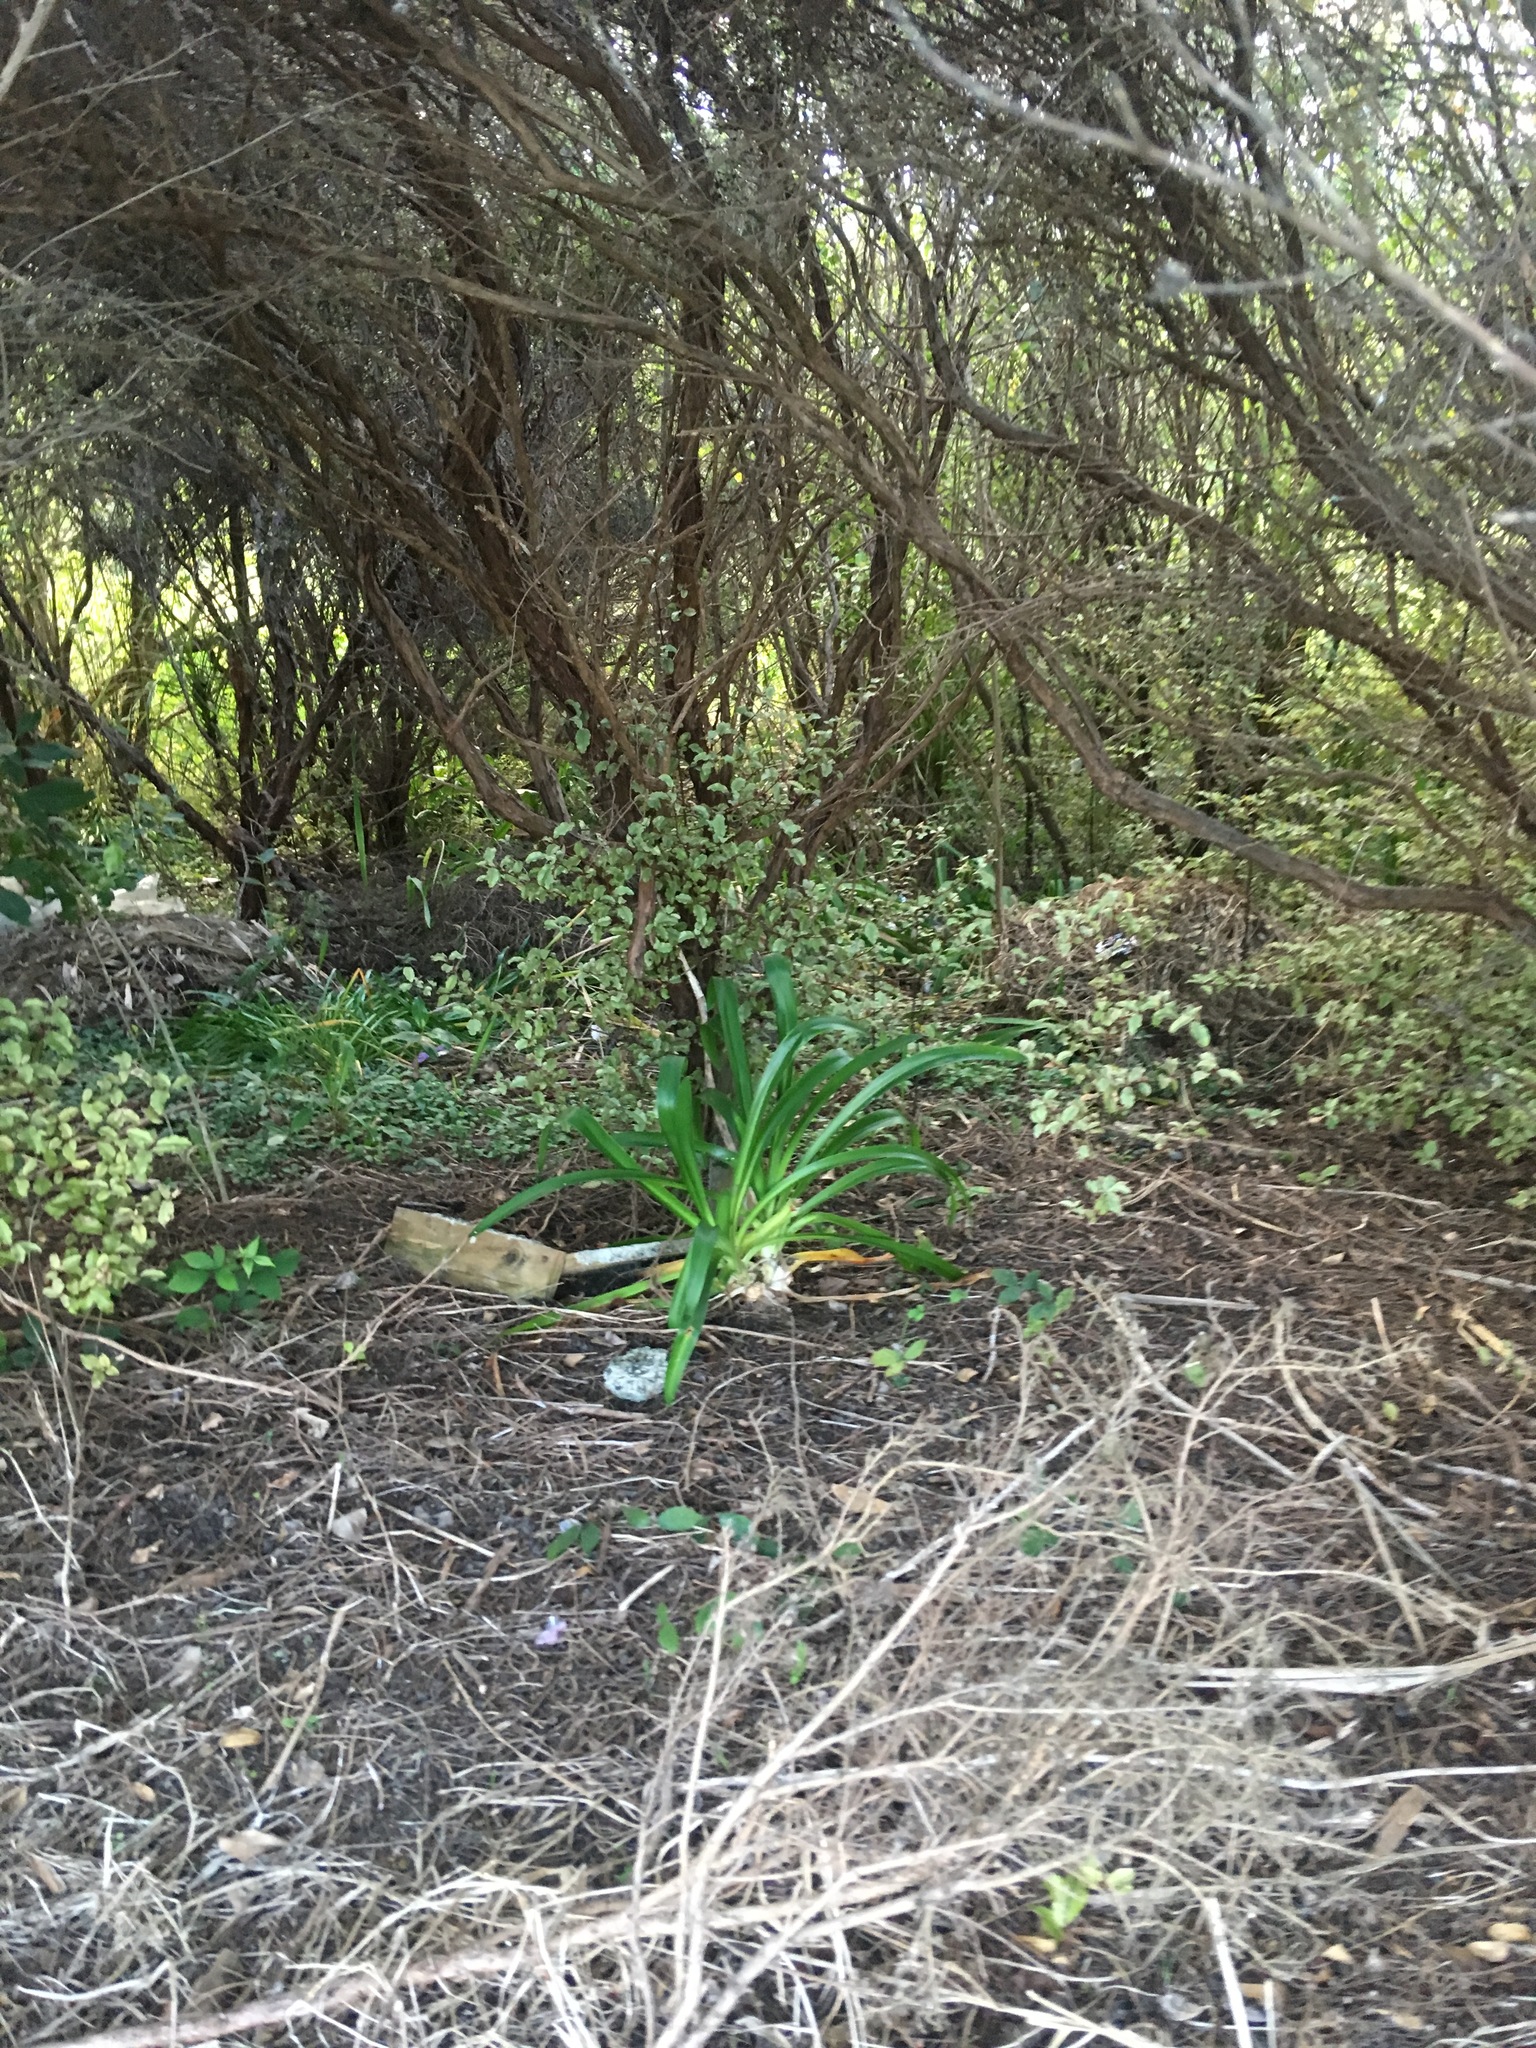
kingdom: Plantae
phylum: Tracheophyta
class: Liliopsida
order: Asparagales
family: Amaryllidaceae
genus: Agapanthus
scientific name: Agapanthus praecox
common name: African-lily
